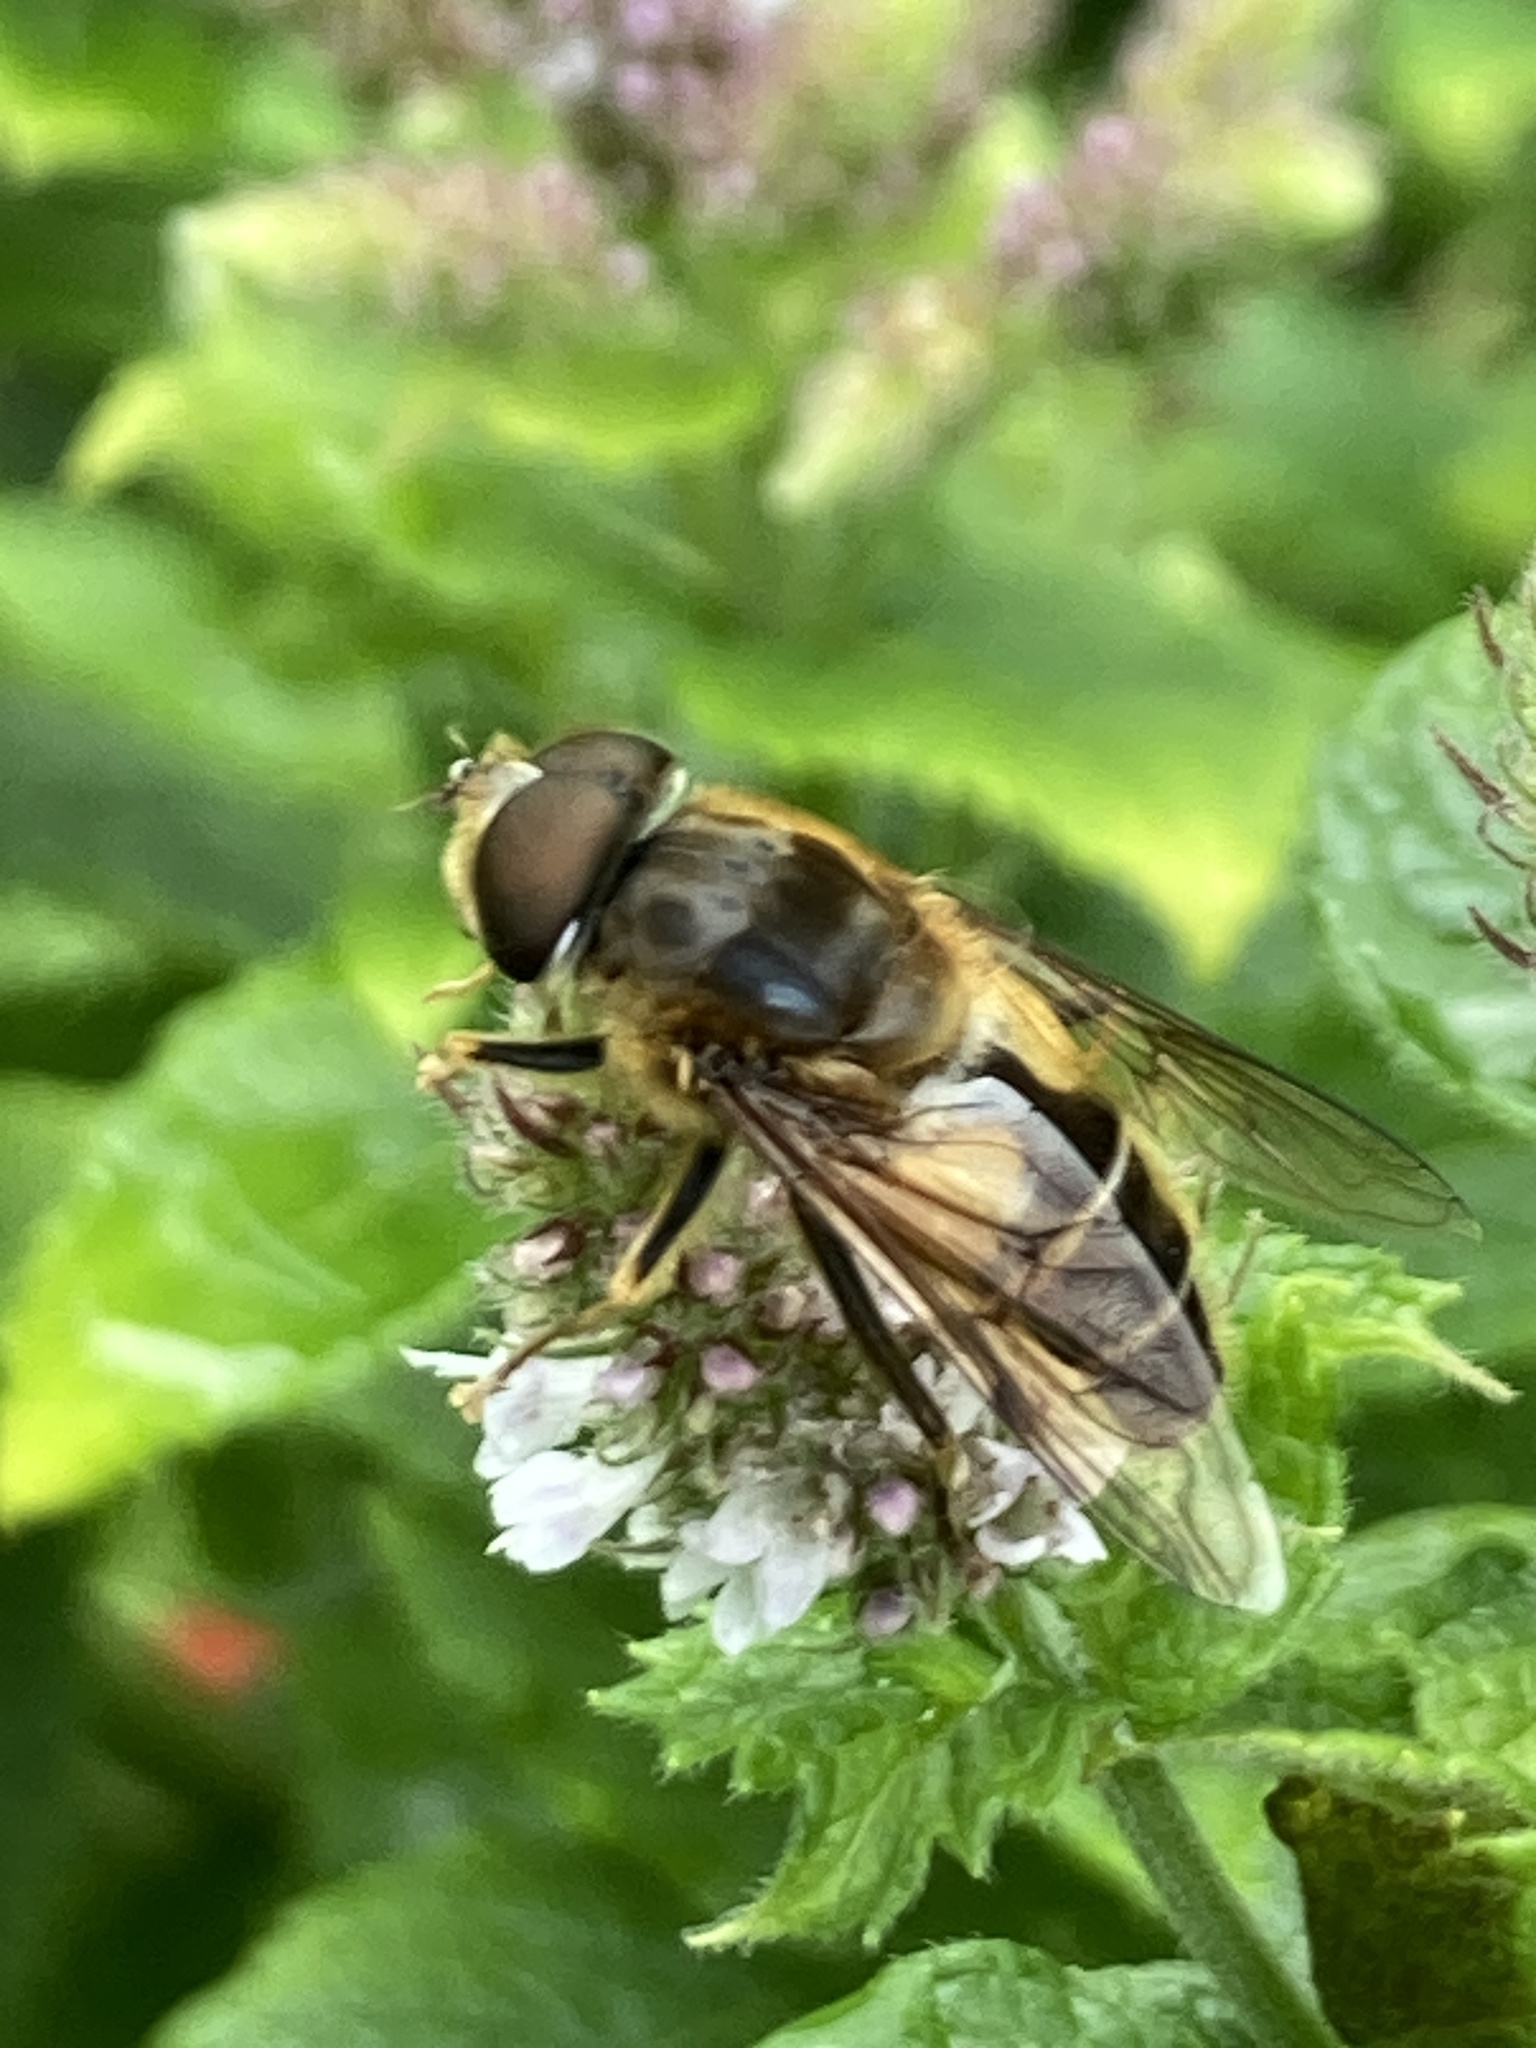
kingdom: Animalia
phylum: Arthropoda
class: Insecta
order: Diptera
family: Syrphidae
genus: Eristalis
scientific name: Eristalis pertinax
